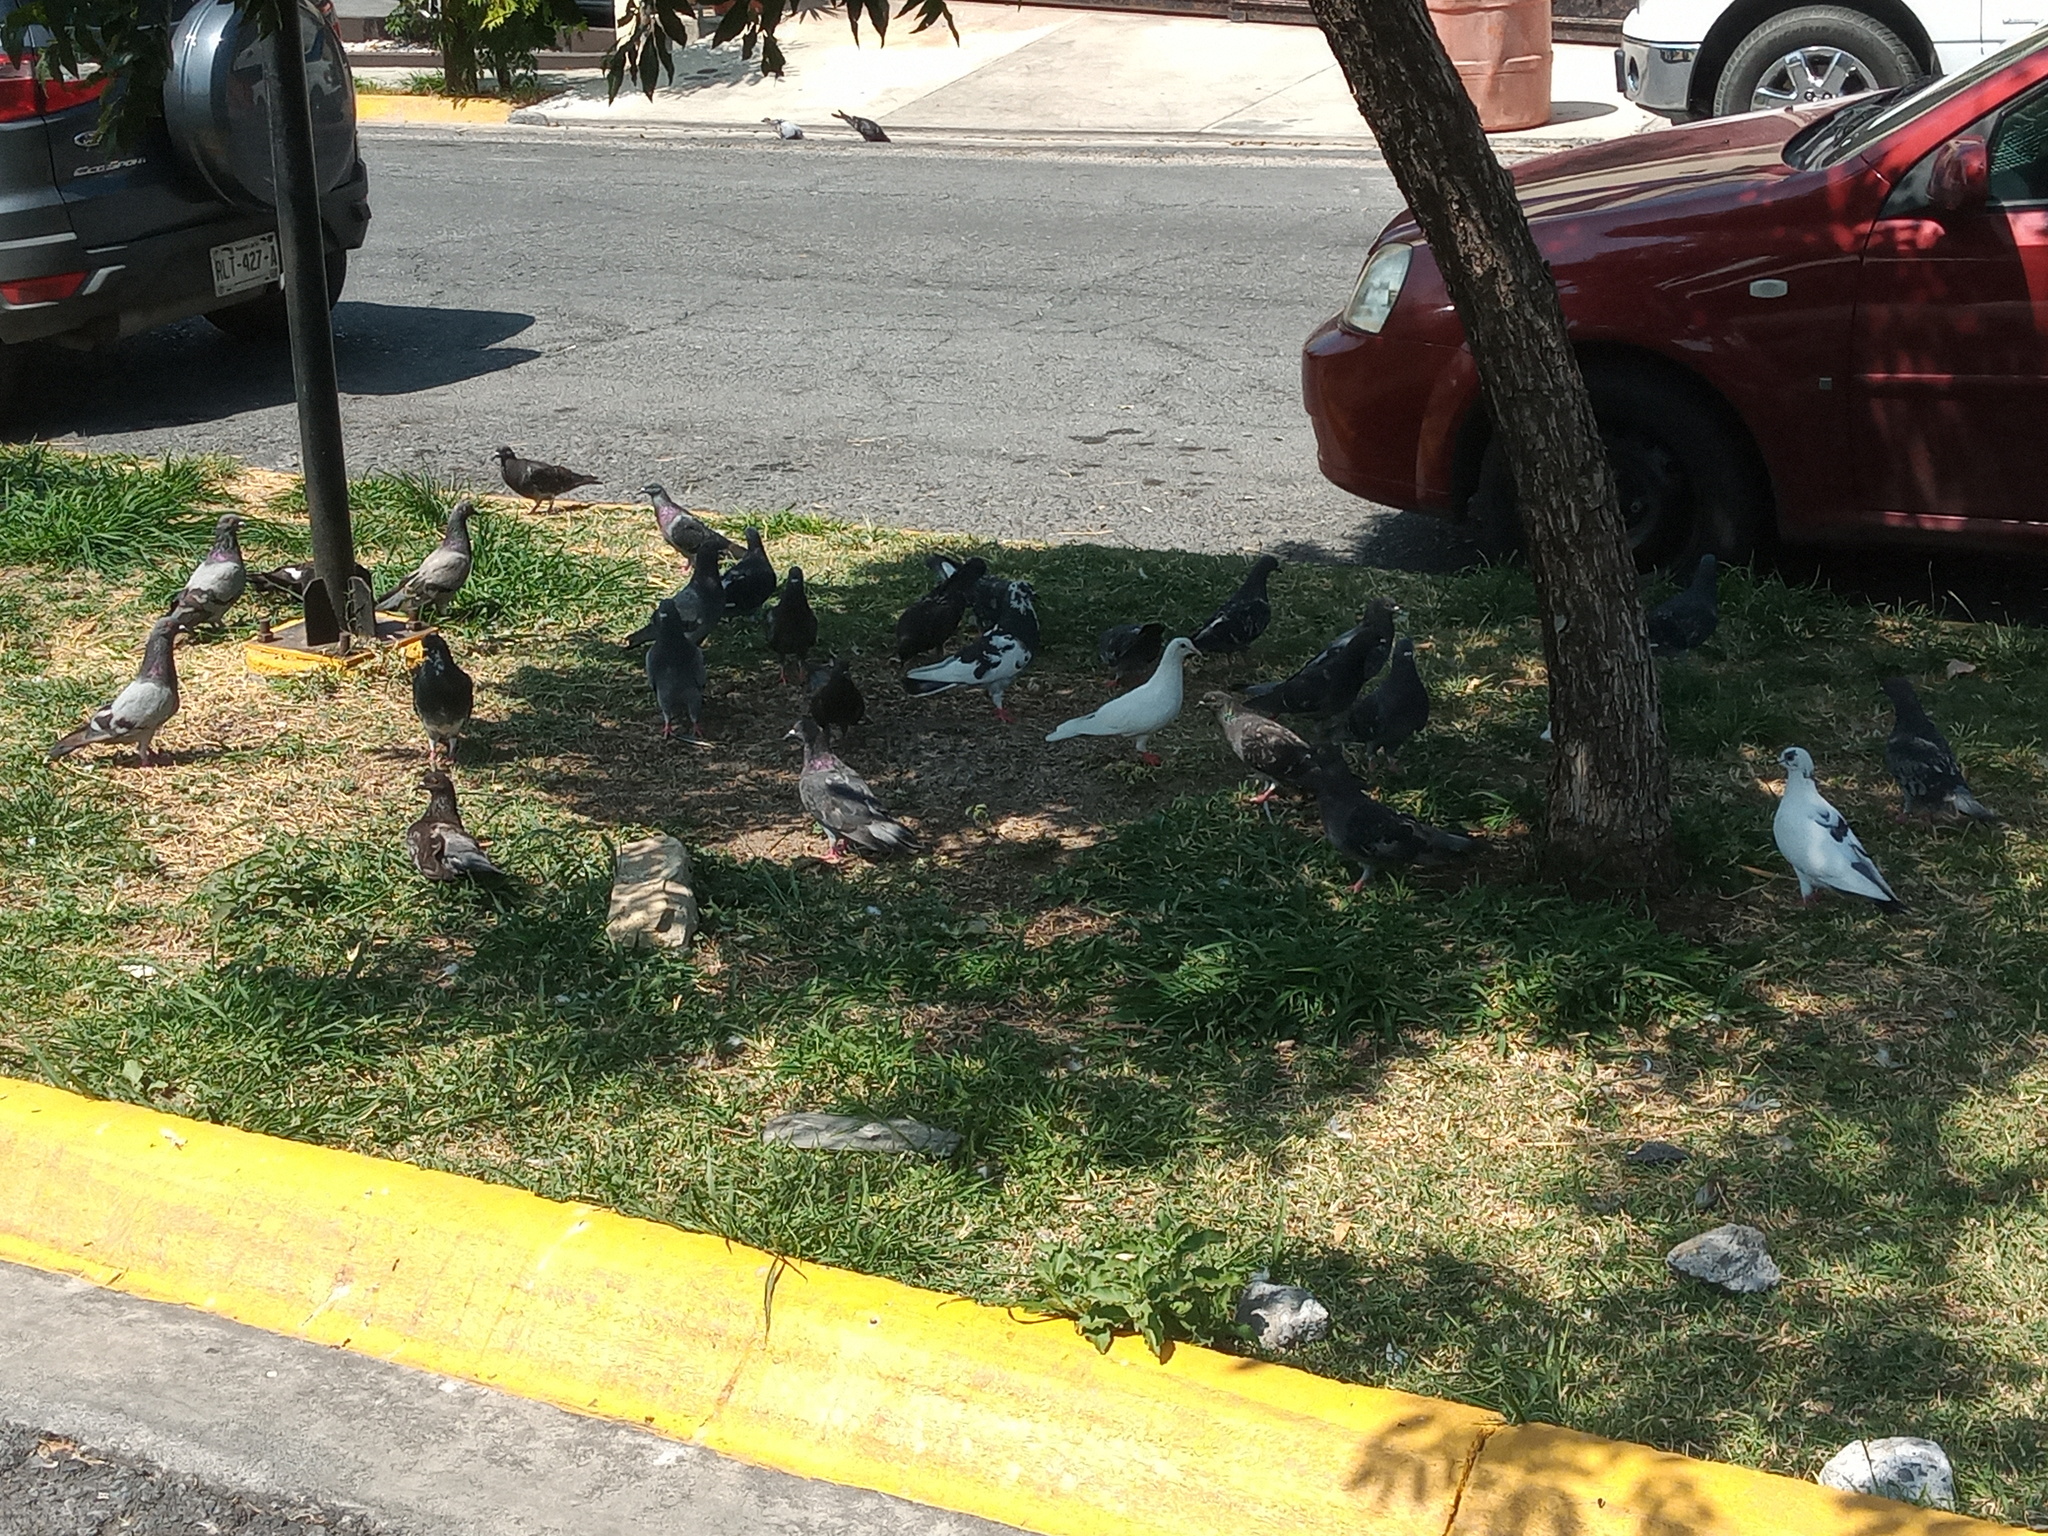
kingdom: Animalia
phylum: Chordata
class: Aves
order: Columbiformes
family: Columbidae
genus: Columba
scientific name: Columba livia
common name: Rock pigeon
